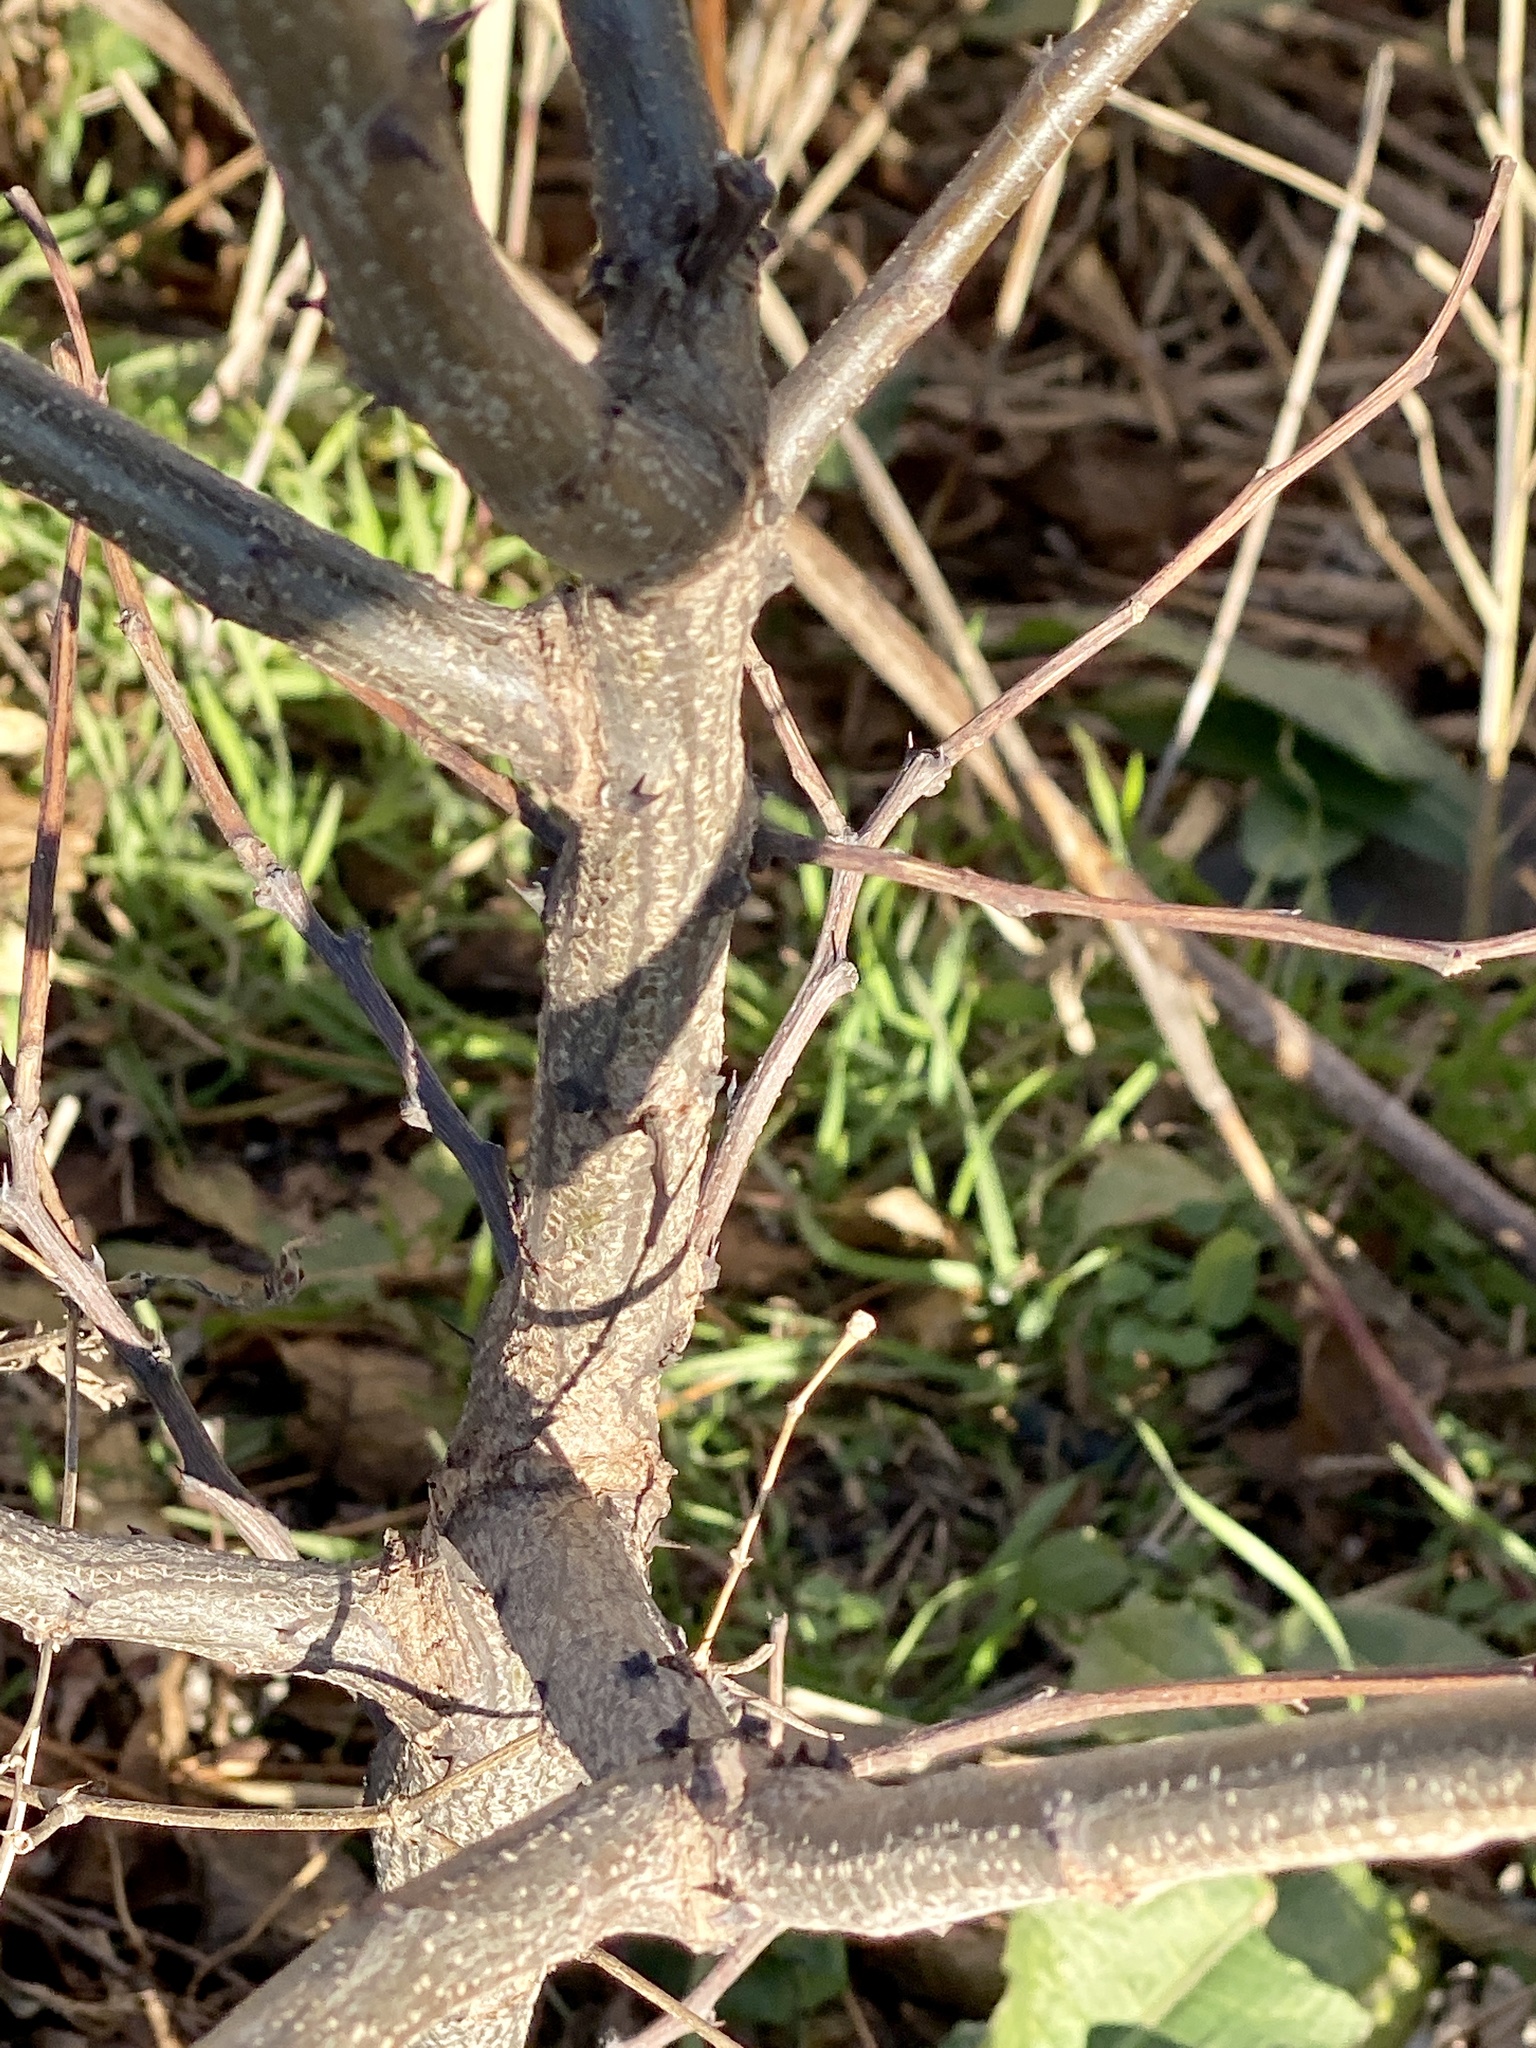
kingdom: Plantae
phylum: Tracheophyta
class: Magnoliopsida
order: Fabales
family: Fabaceae
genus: Robinia
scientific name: Robinia pseudoacacia
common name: Black locust
